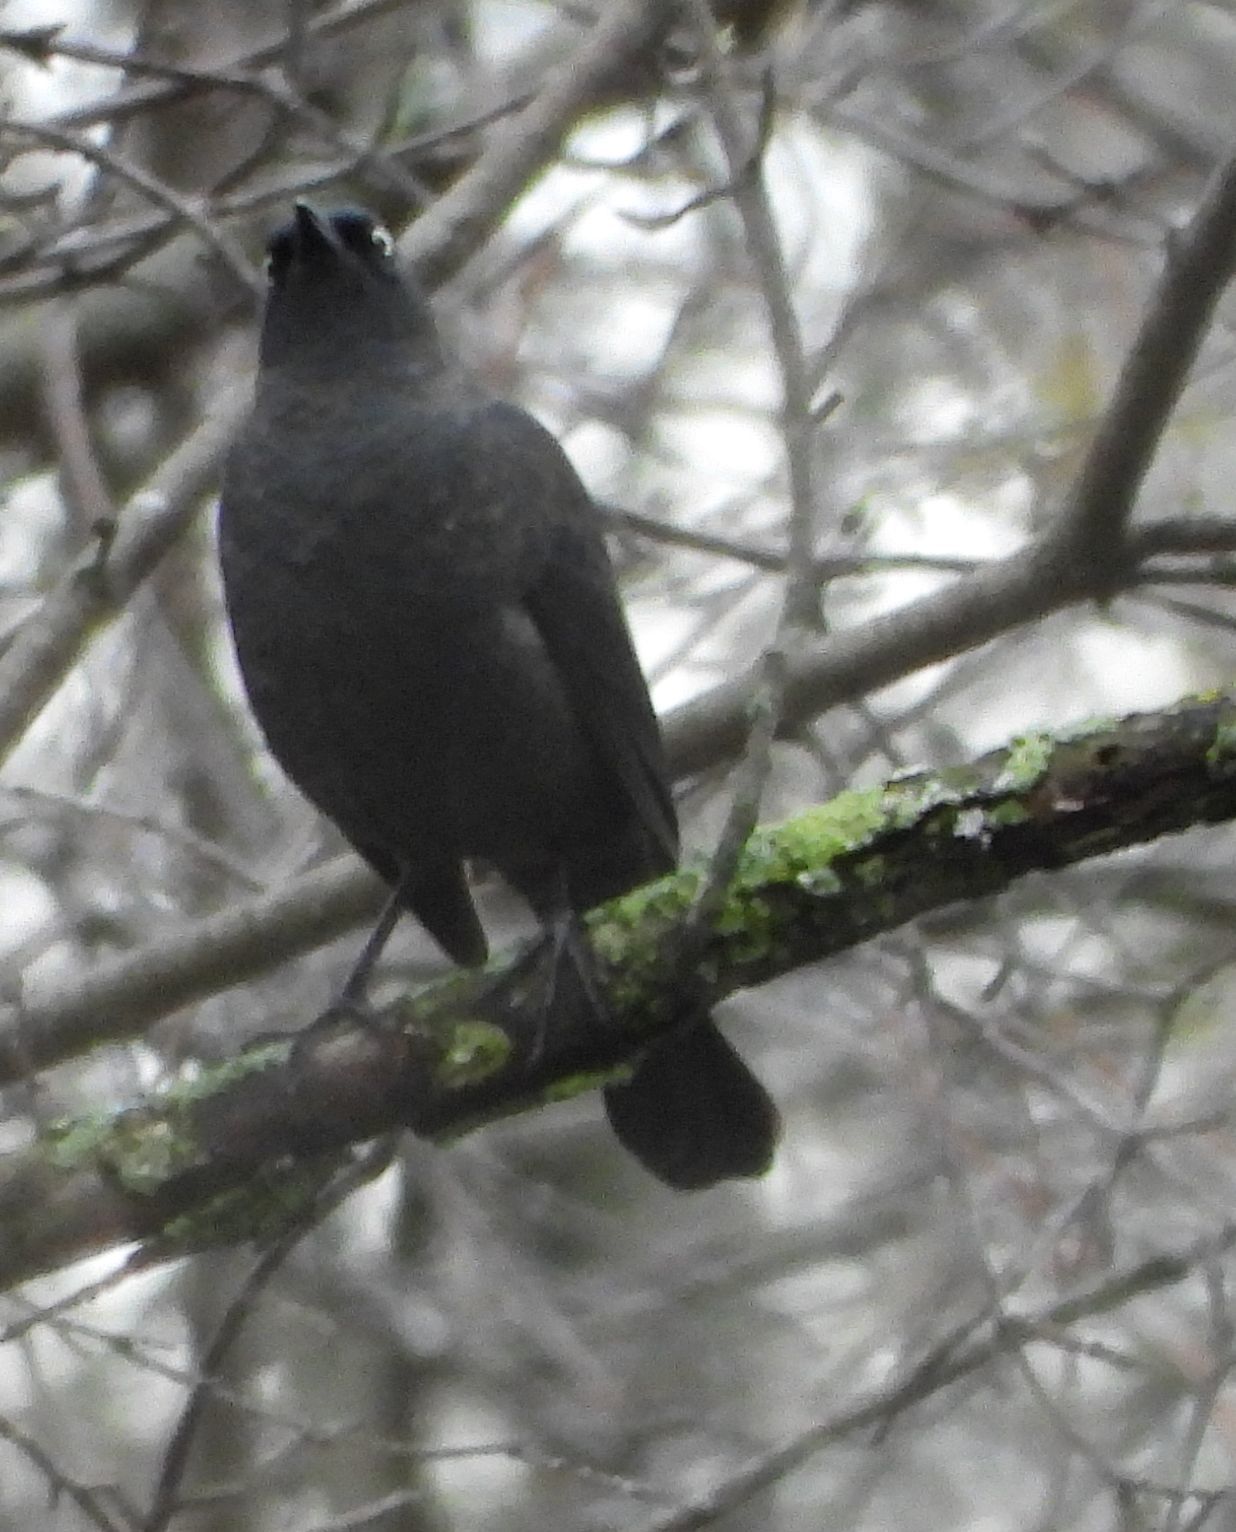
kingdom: Animalia
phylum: Chordata
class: Aves
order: Passeriformes
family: Icteridae
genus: Euphagus
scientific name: Euphagus carolinus
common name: Rusty blackbird
